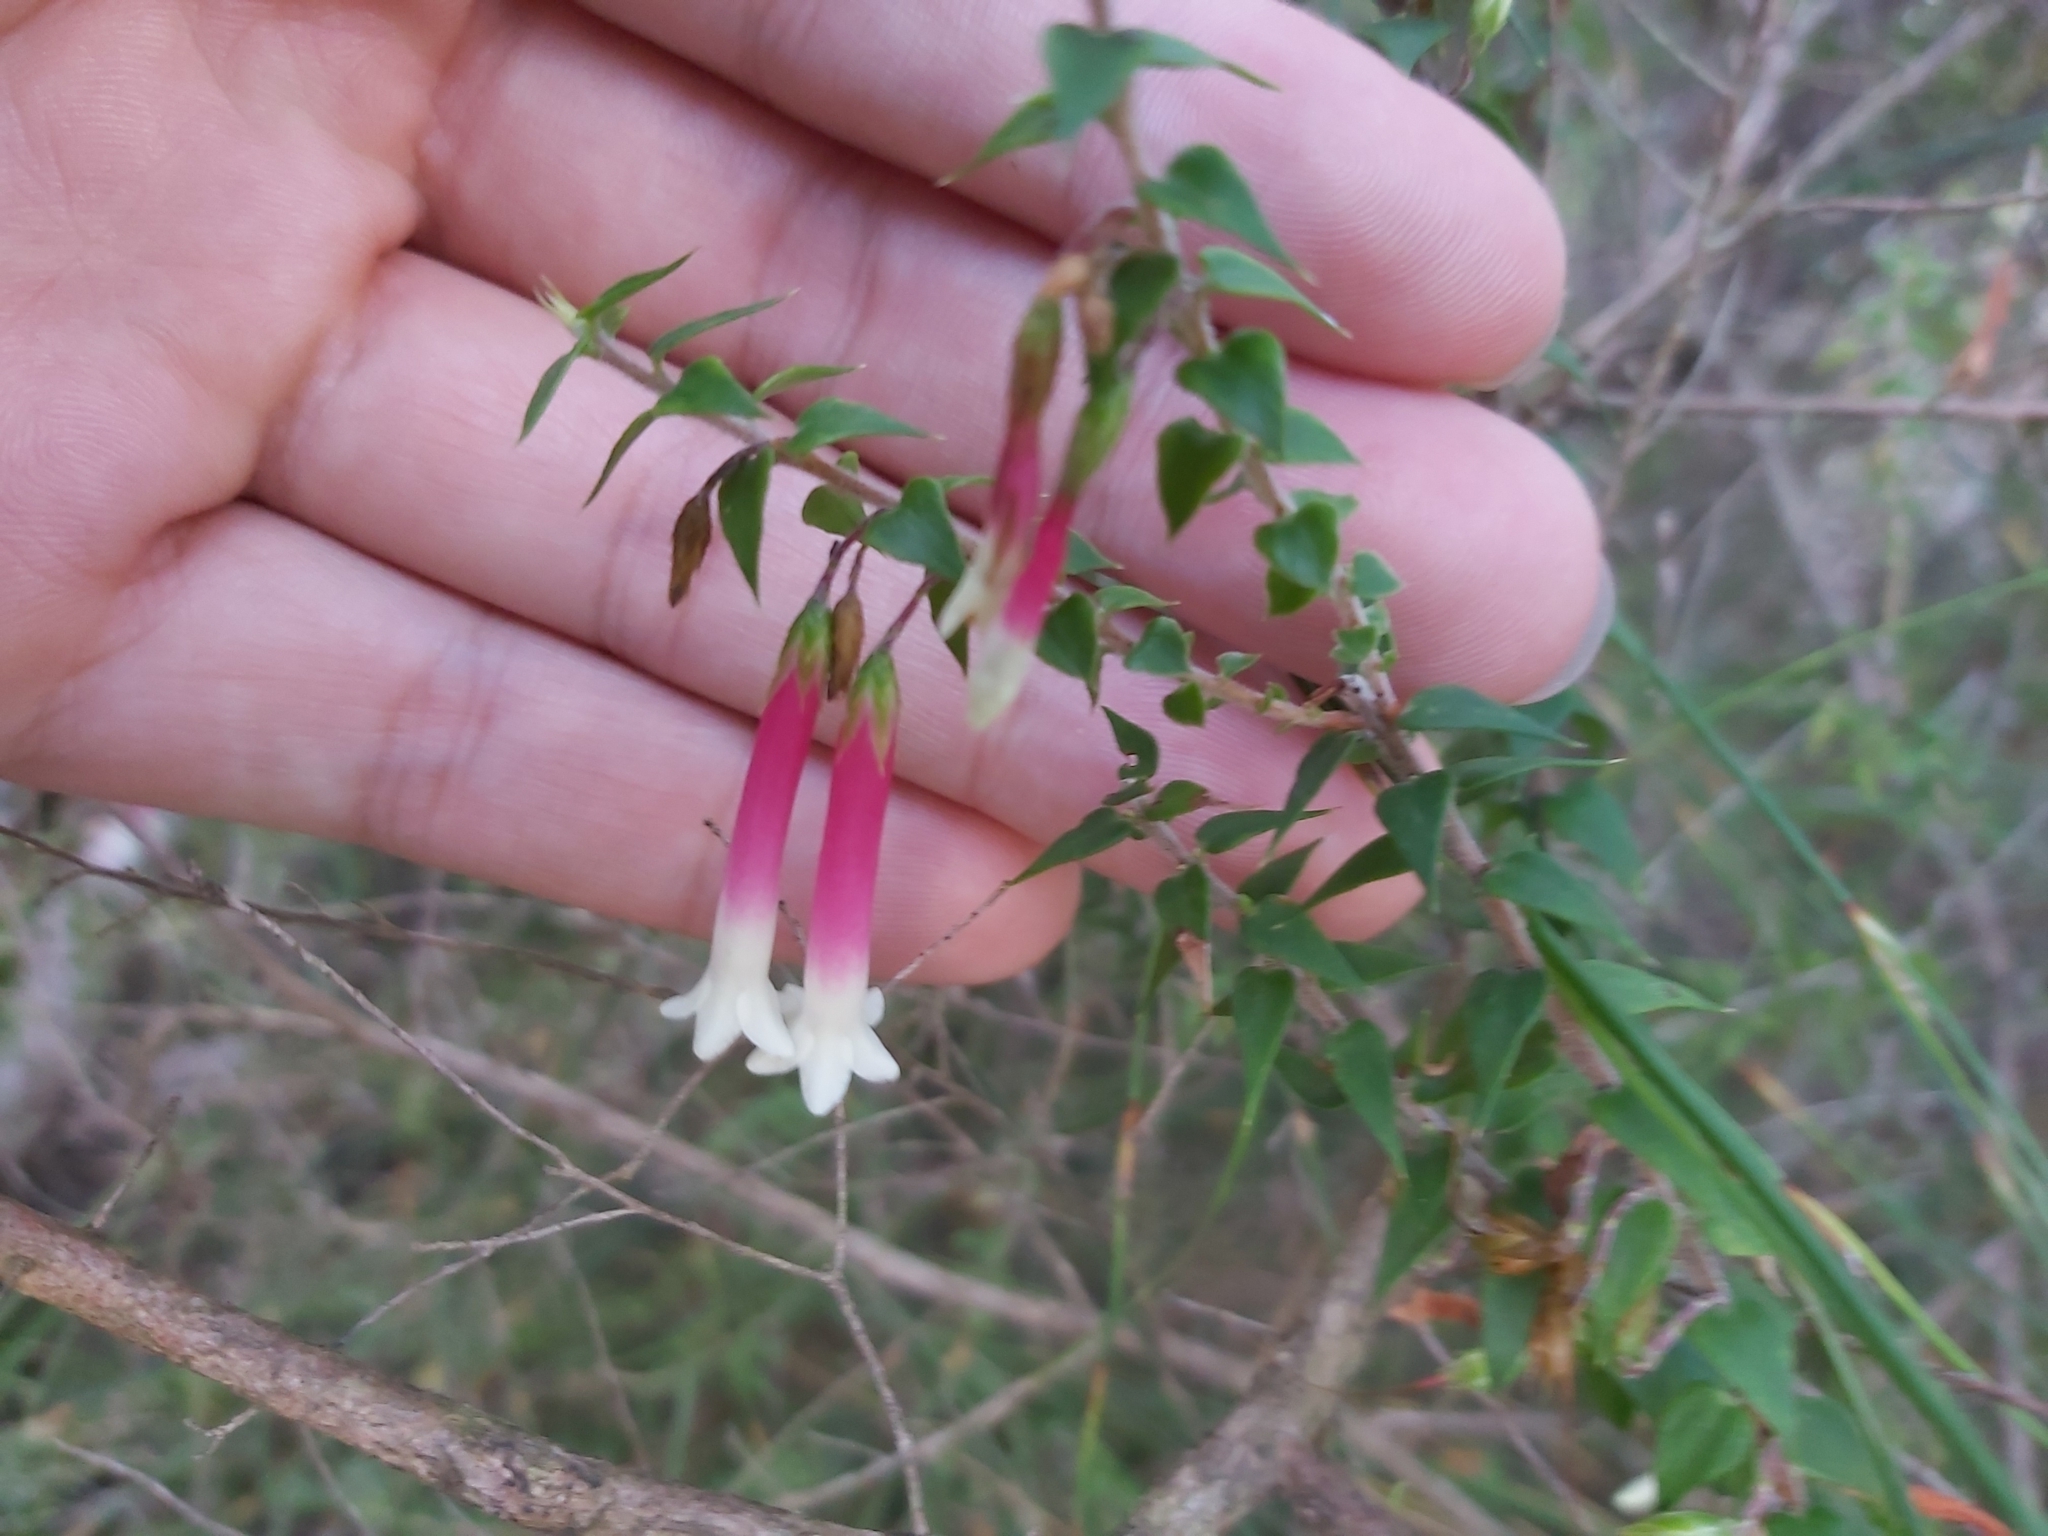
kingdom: Plantae
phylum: Tracheophyta
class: Magnoliopsida
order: Ericales
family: Ericaceae
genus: Epacris
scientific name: Epacris longiflora
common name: Fuchsia-heath
